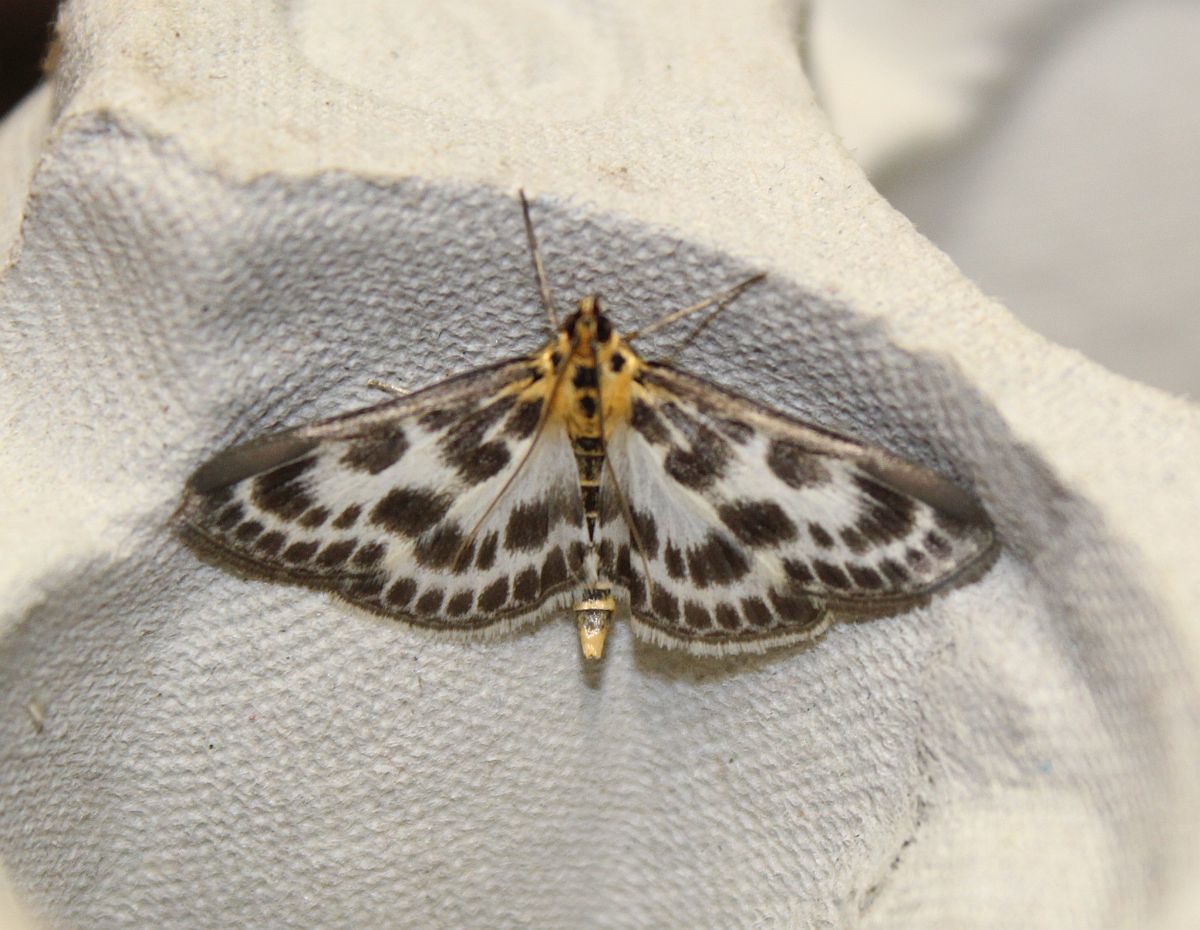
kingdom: Animalia
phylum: Arthropoda
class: Insecta
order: Lepidoptera
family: Crambidae
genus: Anania
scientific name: Anania hortulata
